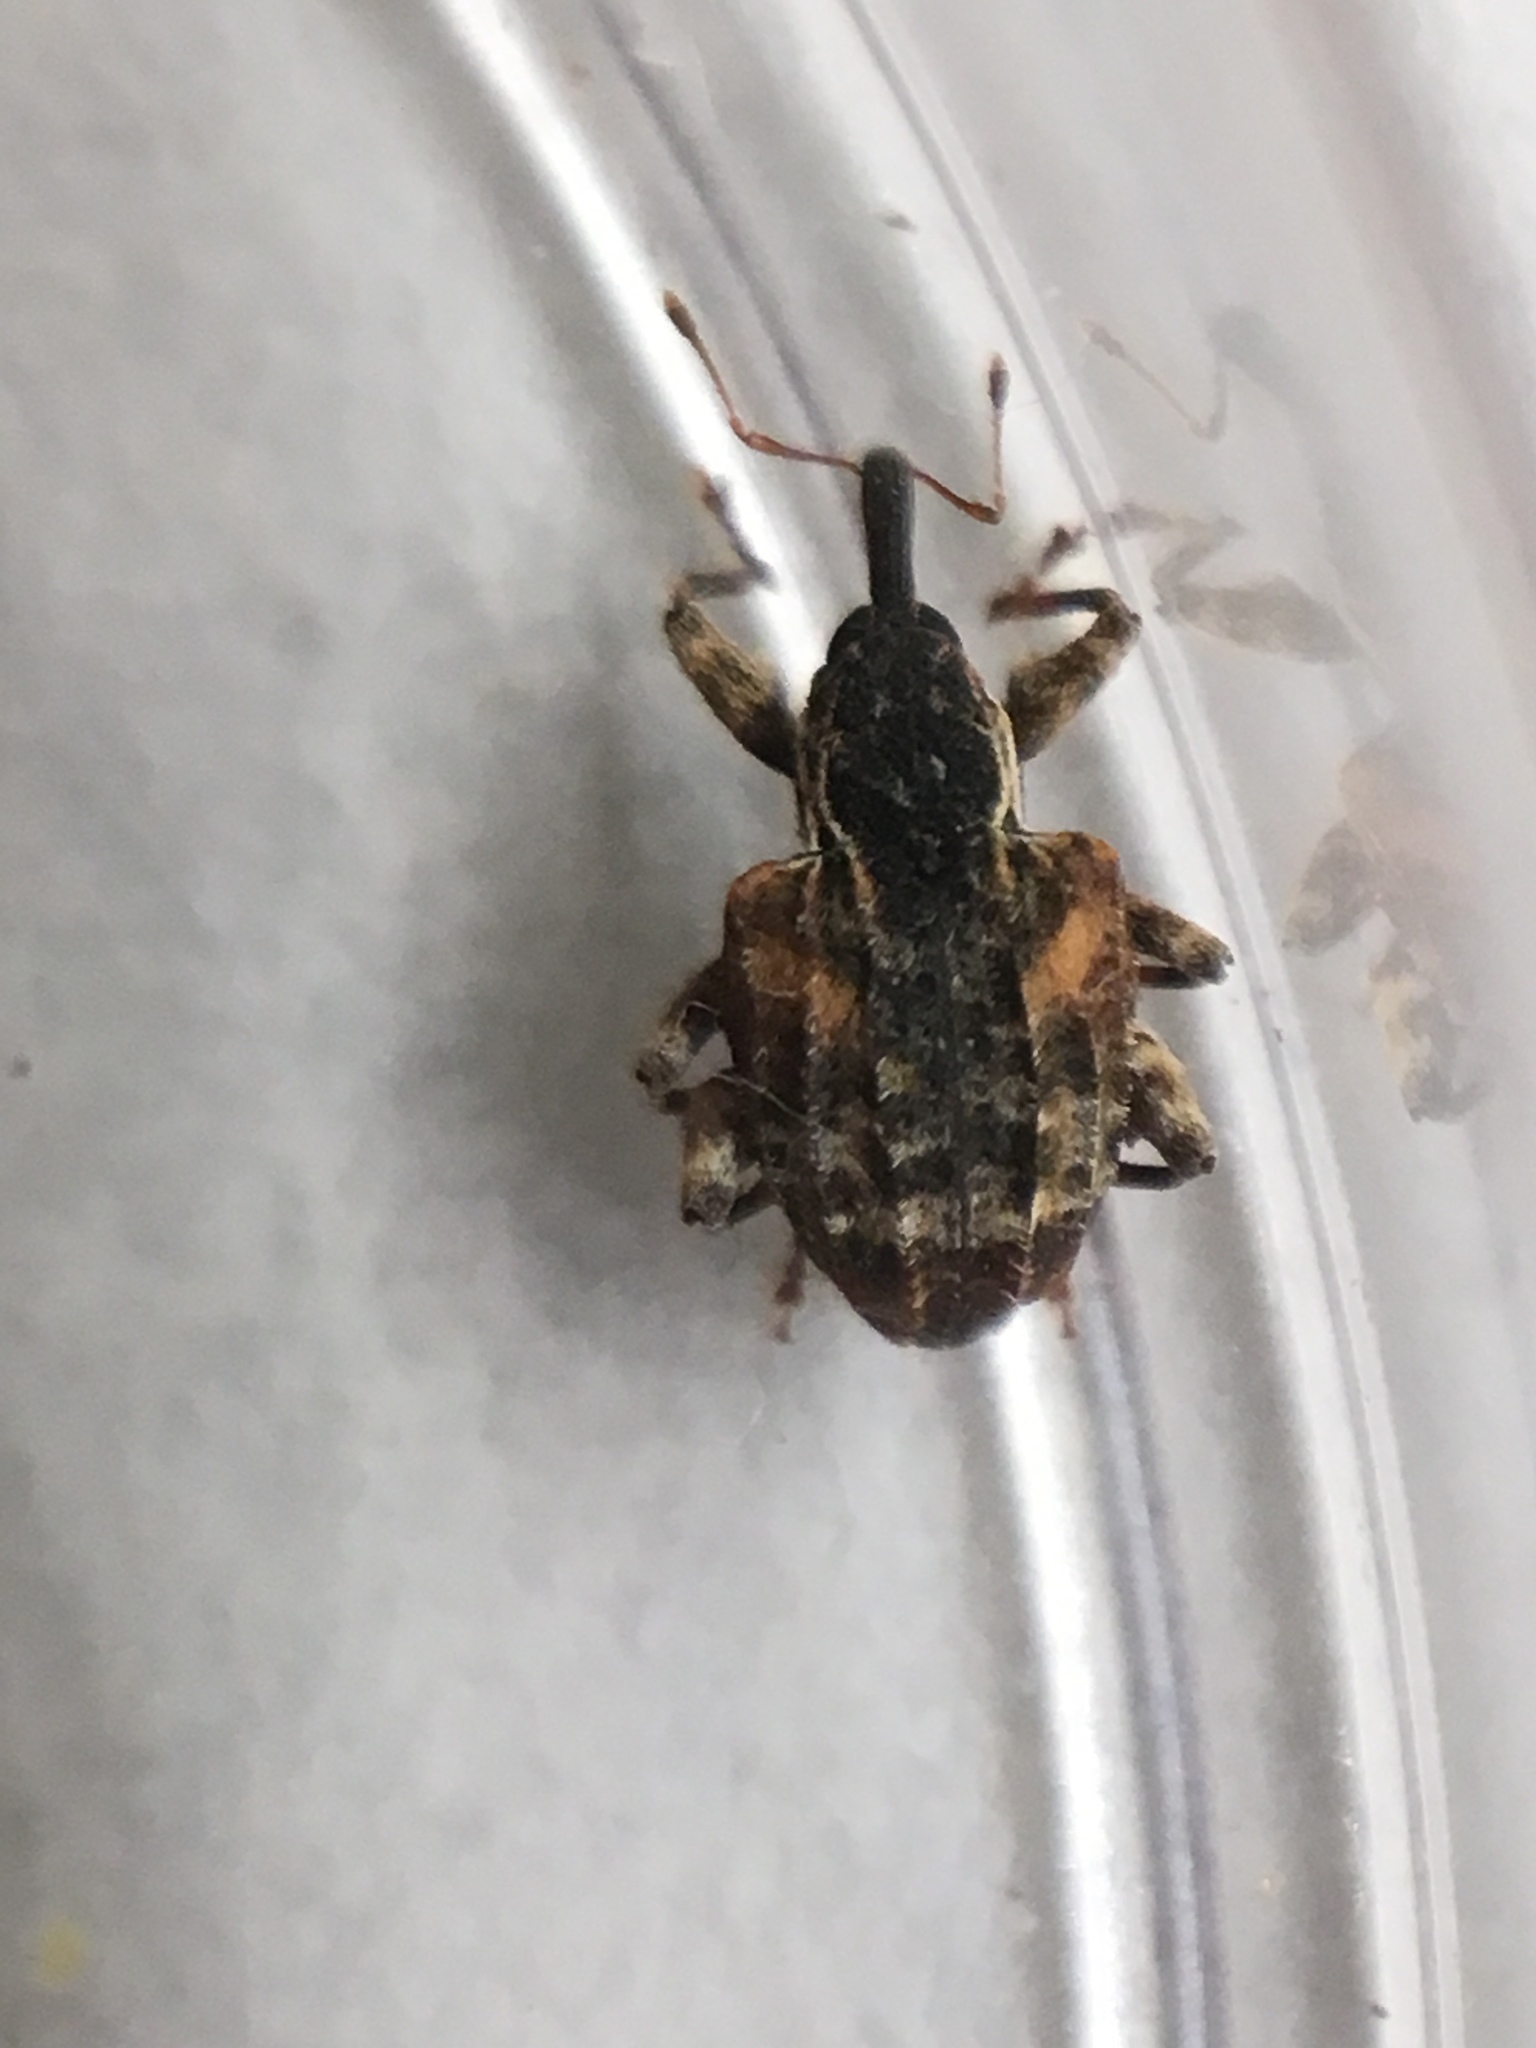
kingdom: Animalia
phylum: Arthropoda
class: Insecta
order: Coleoptera
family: Curculionidae
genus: Conotrachelus
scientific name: Conotrachelus anaglypticus
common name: Cambium curculio
